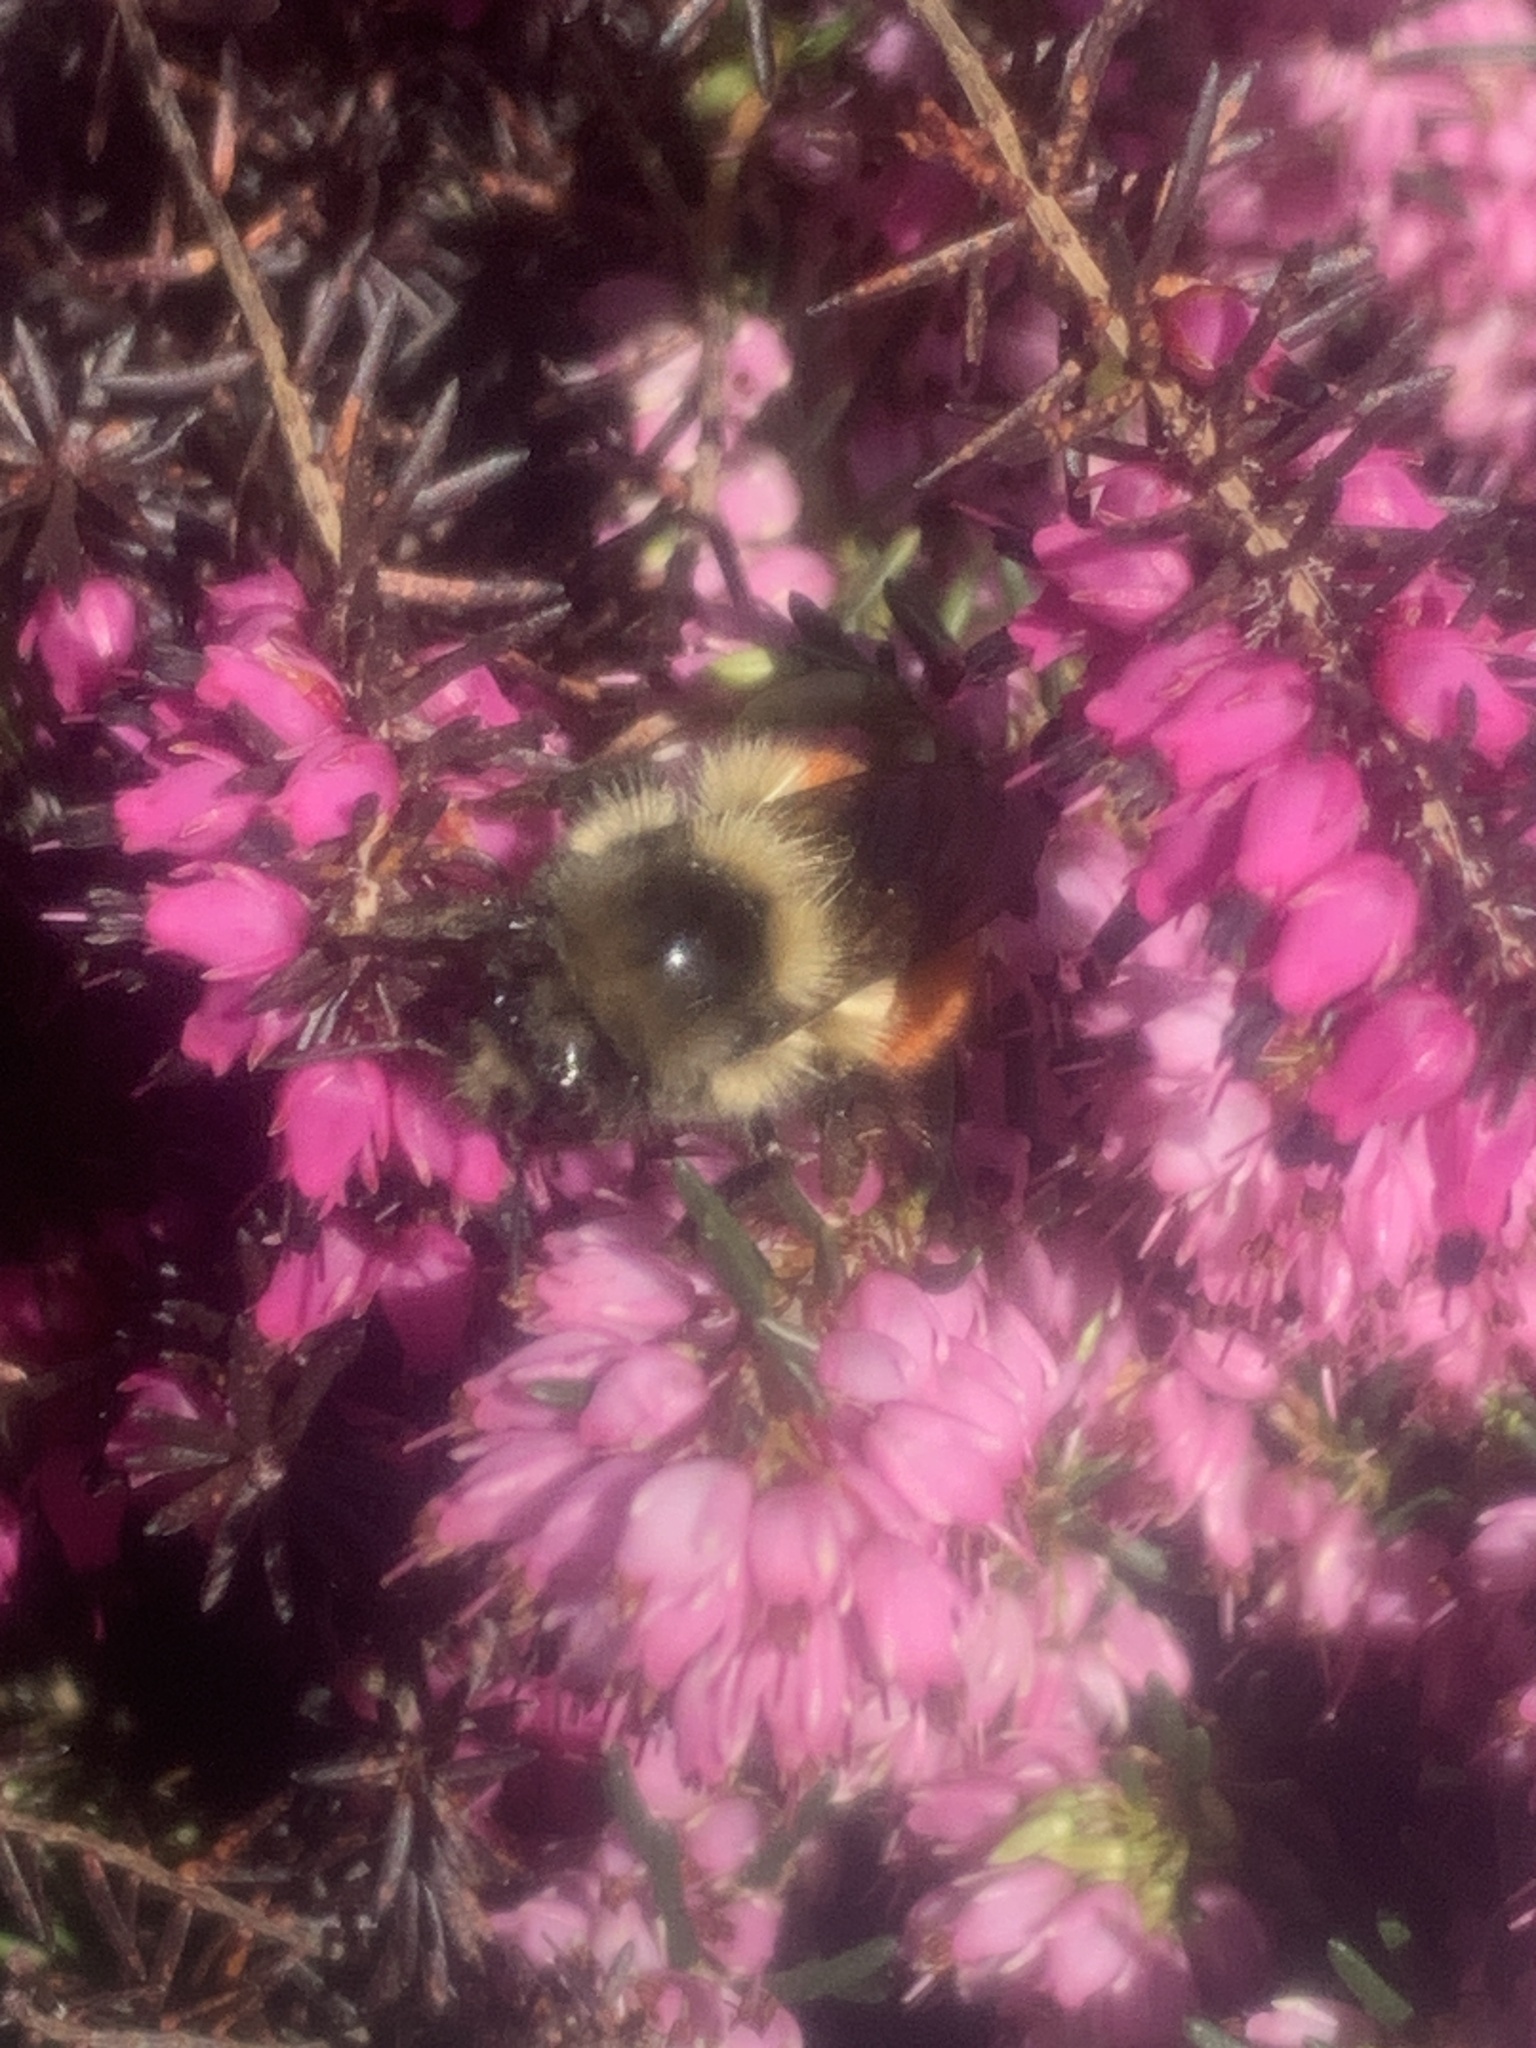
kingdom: Animalia
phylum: Arthropoda
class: Insecta
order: Hymenoptera
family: Apidae
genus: Bombus
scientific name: Bombus melanopygus
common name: Black tail bumble bee
